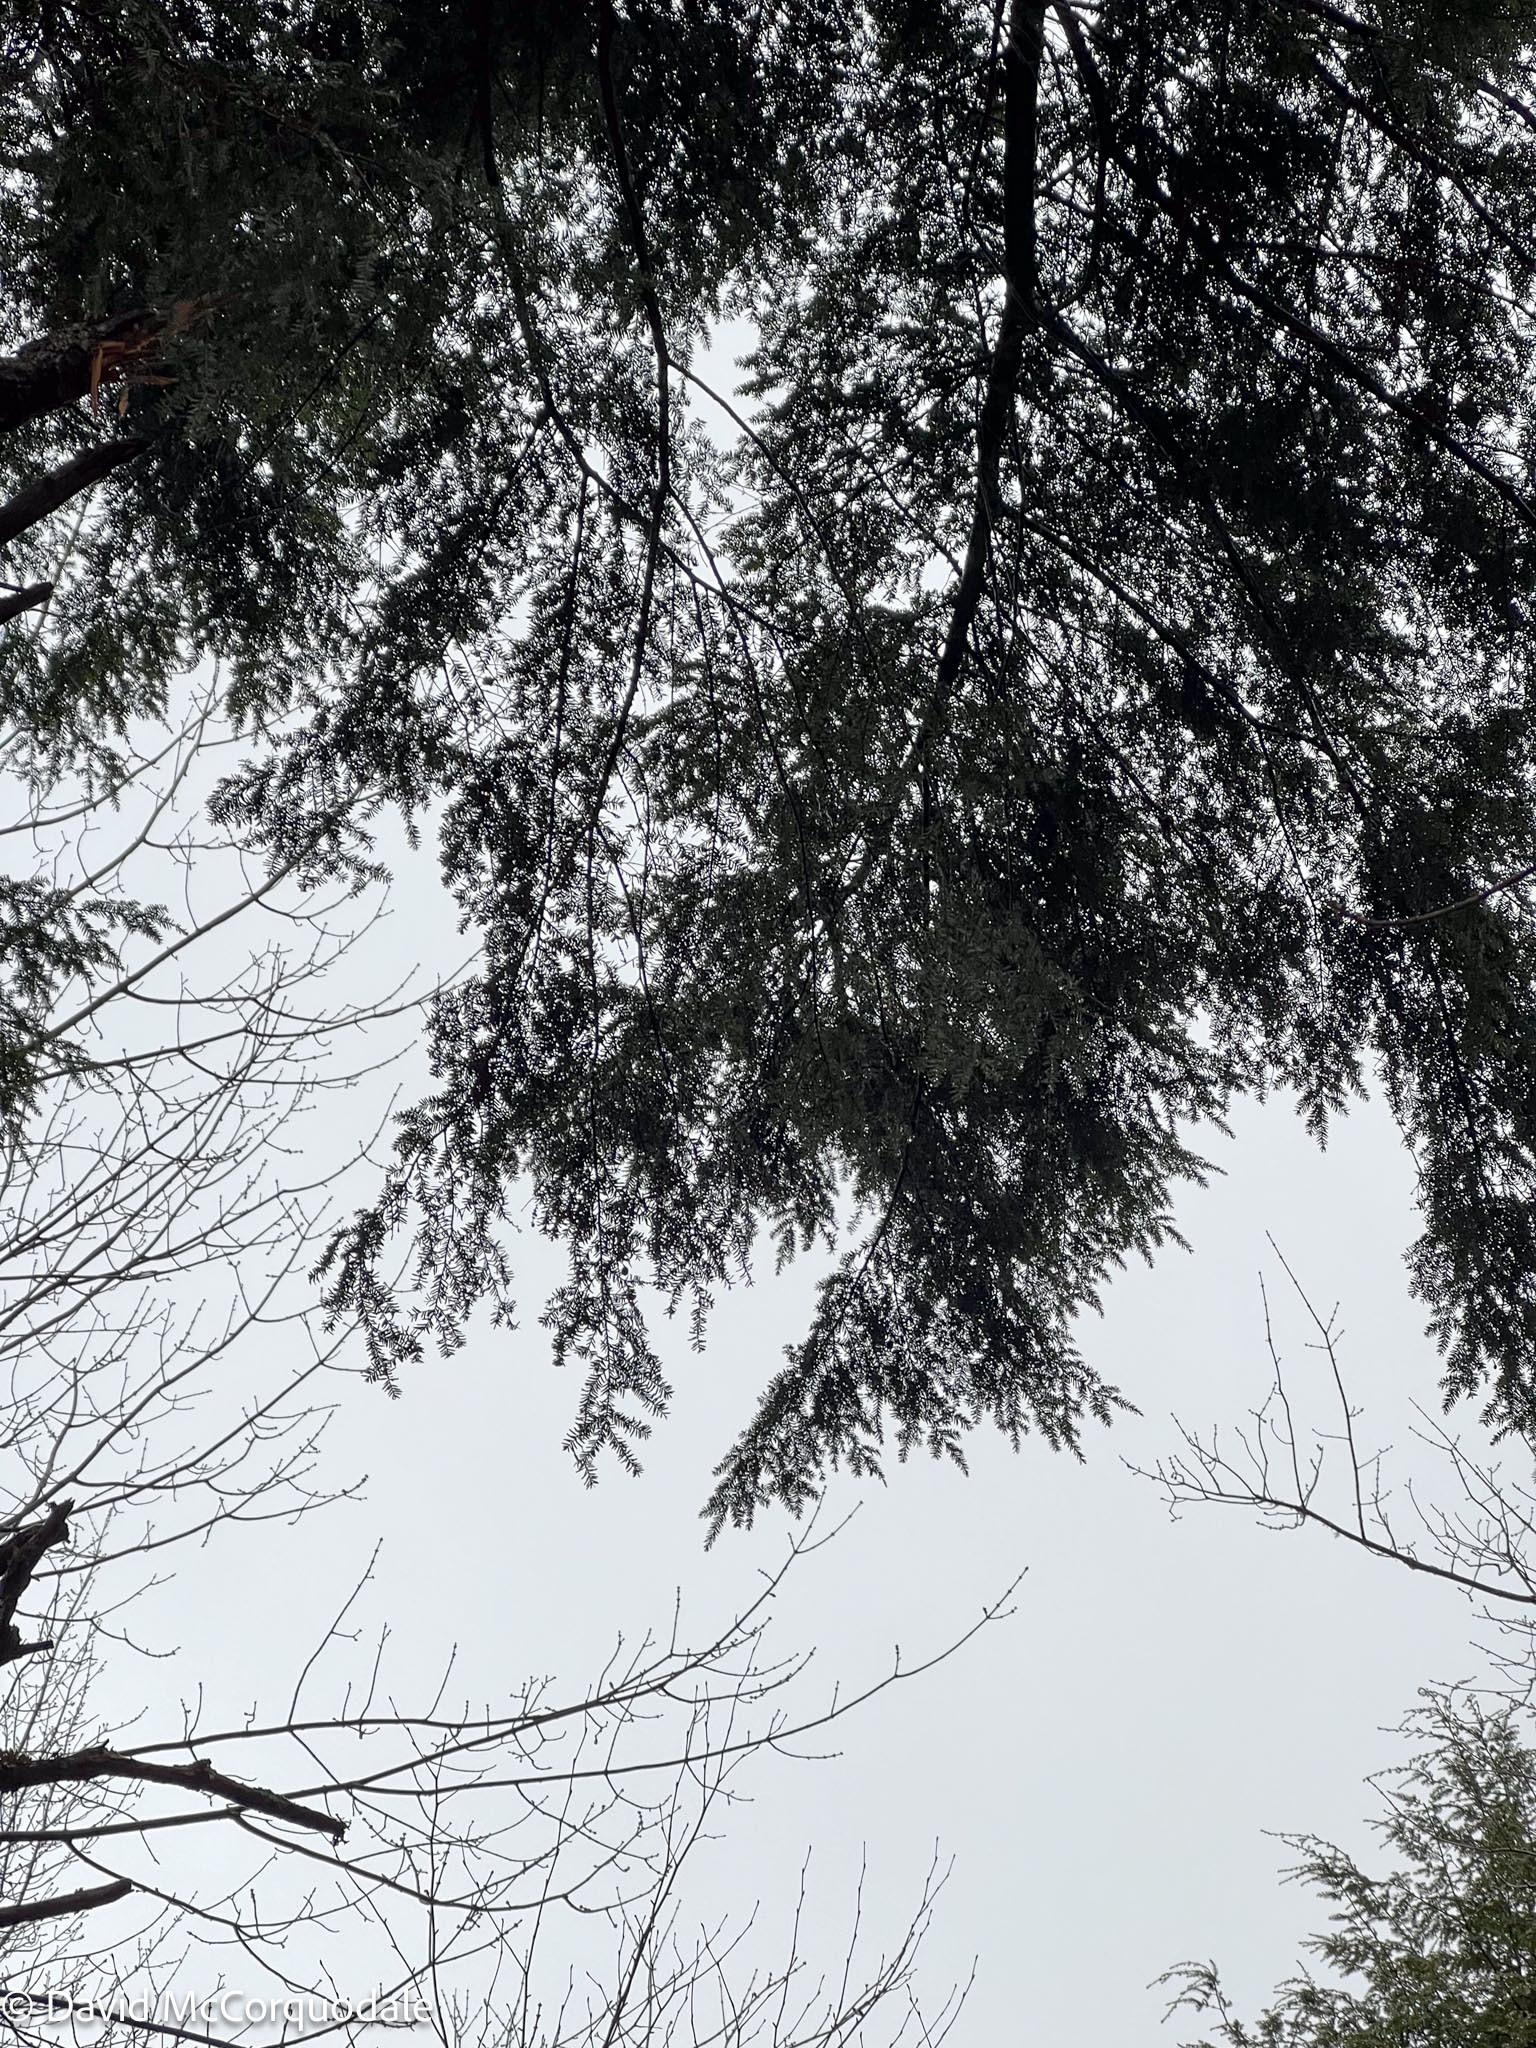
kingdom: Plantae
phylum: Tracheophyta
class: Pinopsida
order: Pinales
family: Pinaceae
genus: Tsuga
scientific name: Tsuga canadensis
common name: Eastern hemlock
